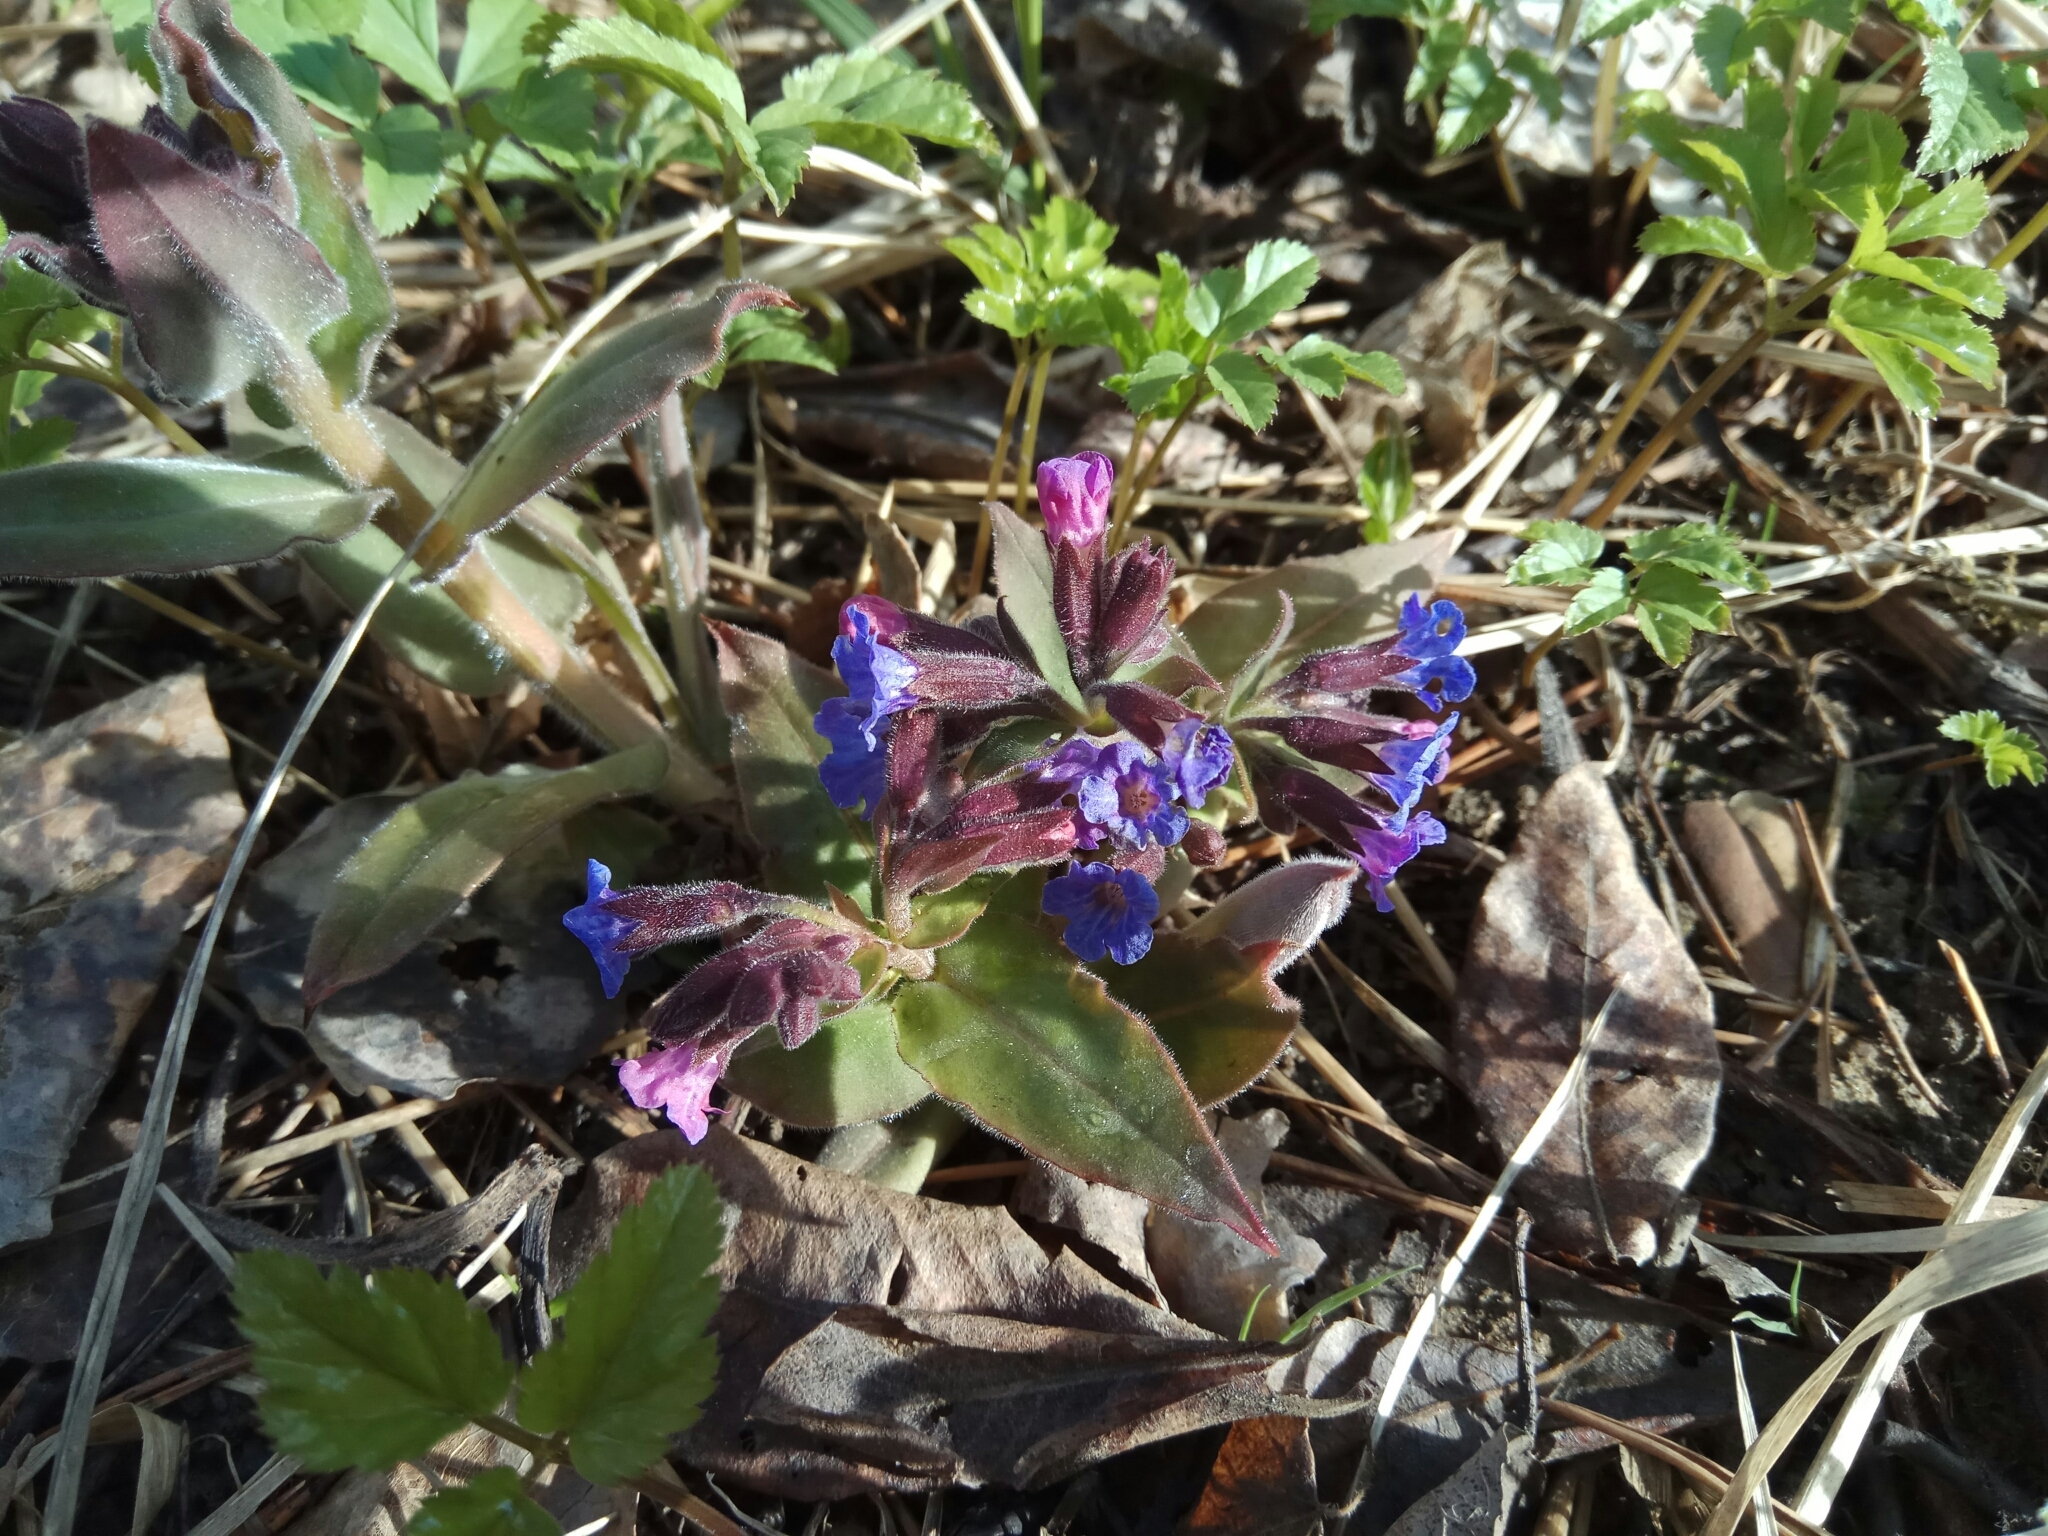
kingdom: Plantae
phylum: Tracheophyta
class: Magnoliopsida
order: Boraginales
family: Boraginaceae
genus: Pulmonaria
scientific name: Pulmonaria mollis
